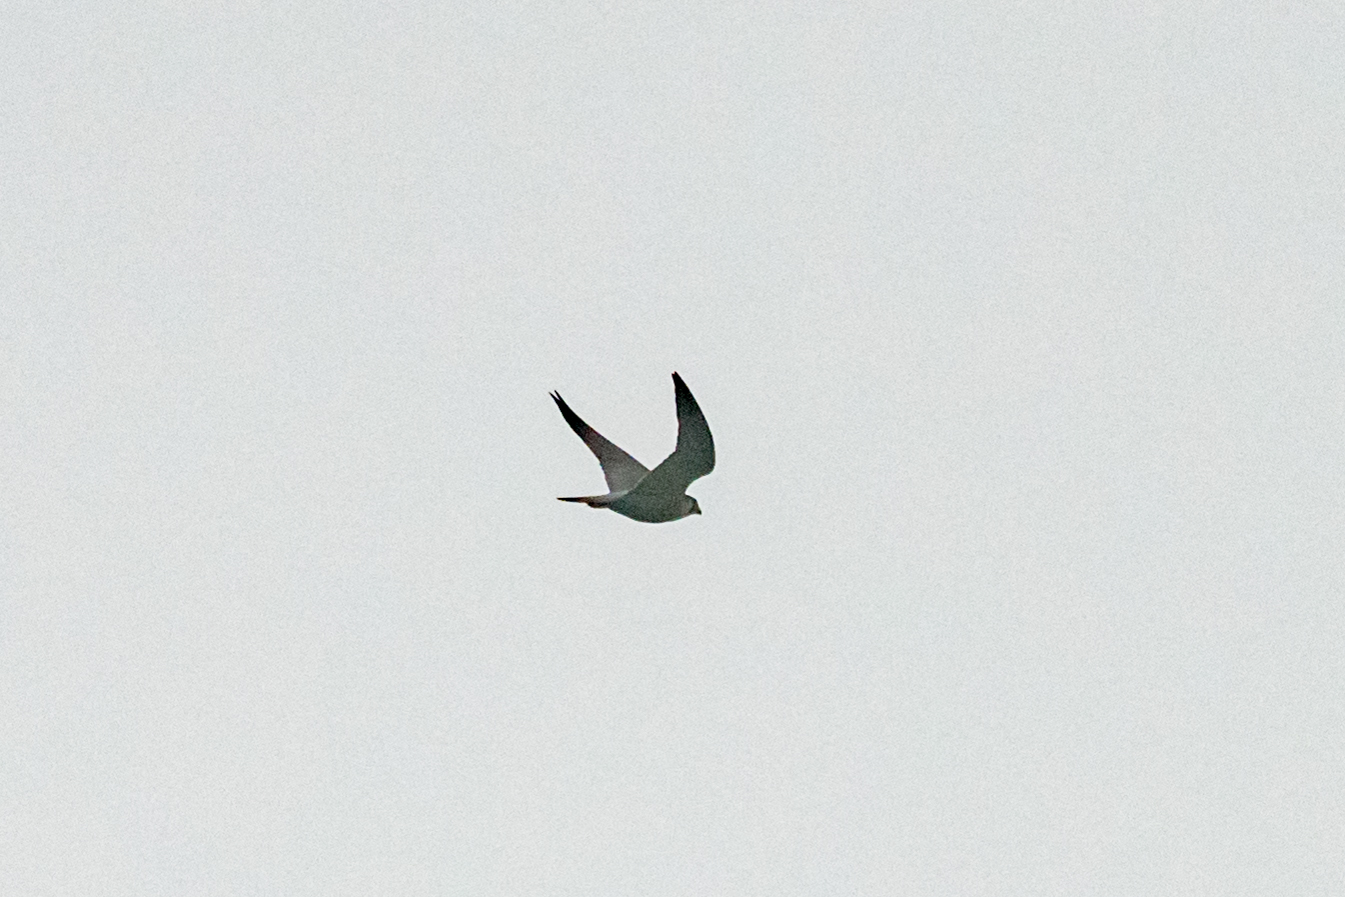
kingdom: Animalia
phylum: Chordata
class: Aves
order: Falconiformes
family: Falconidae
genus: Falco
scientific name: Falco peregrinus
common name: Peregrine falcon
